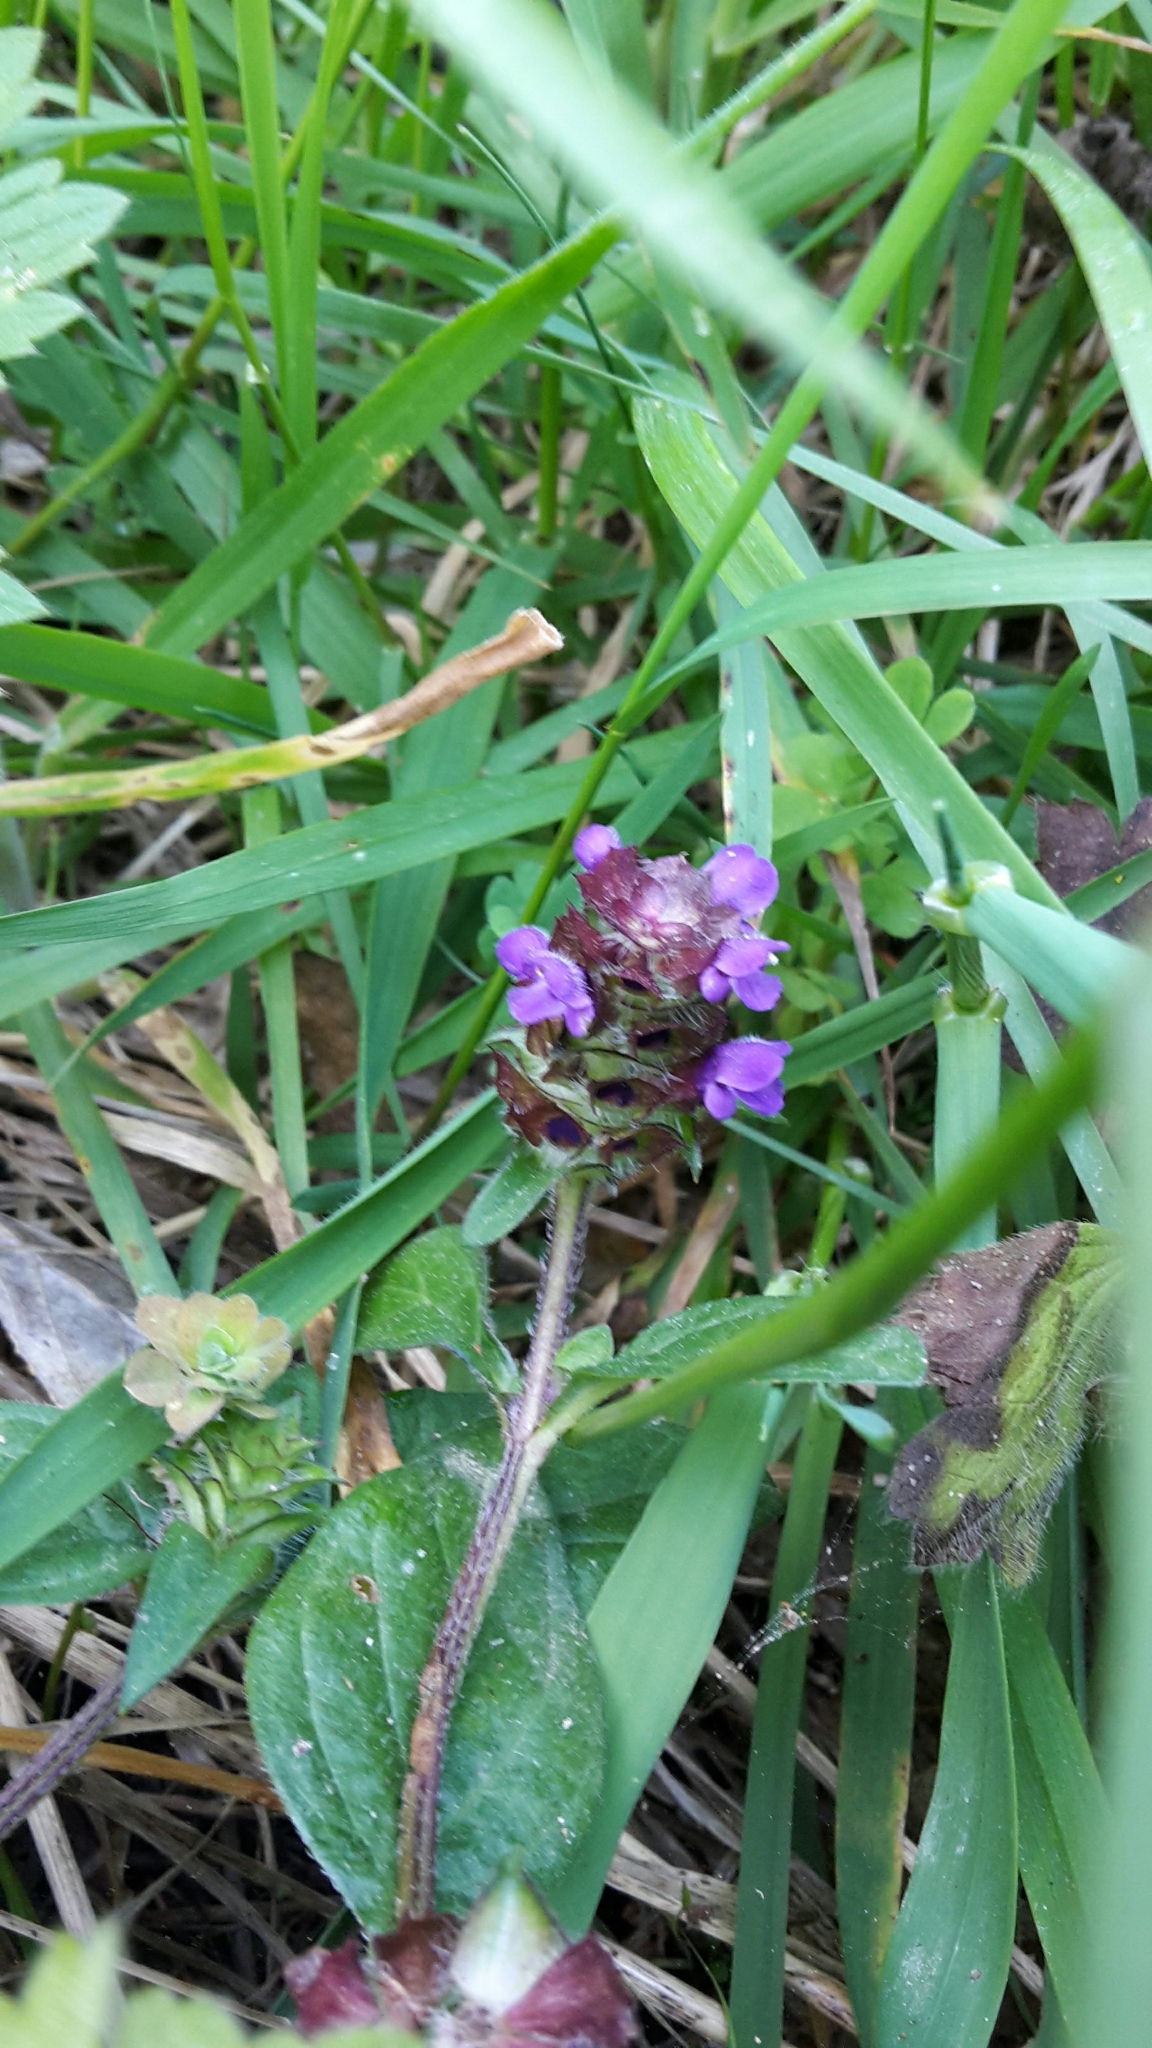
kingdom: Plantae
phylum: Tracheophyta
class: Magnoliopsida
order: Lamiales
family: Lamiaceae
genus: Prunella
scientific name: Prunella vulgaris
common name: Heal-all
